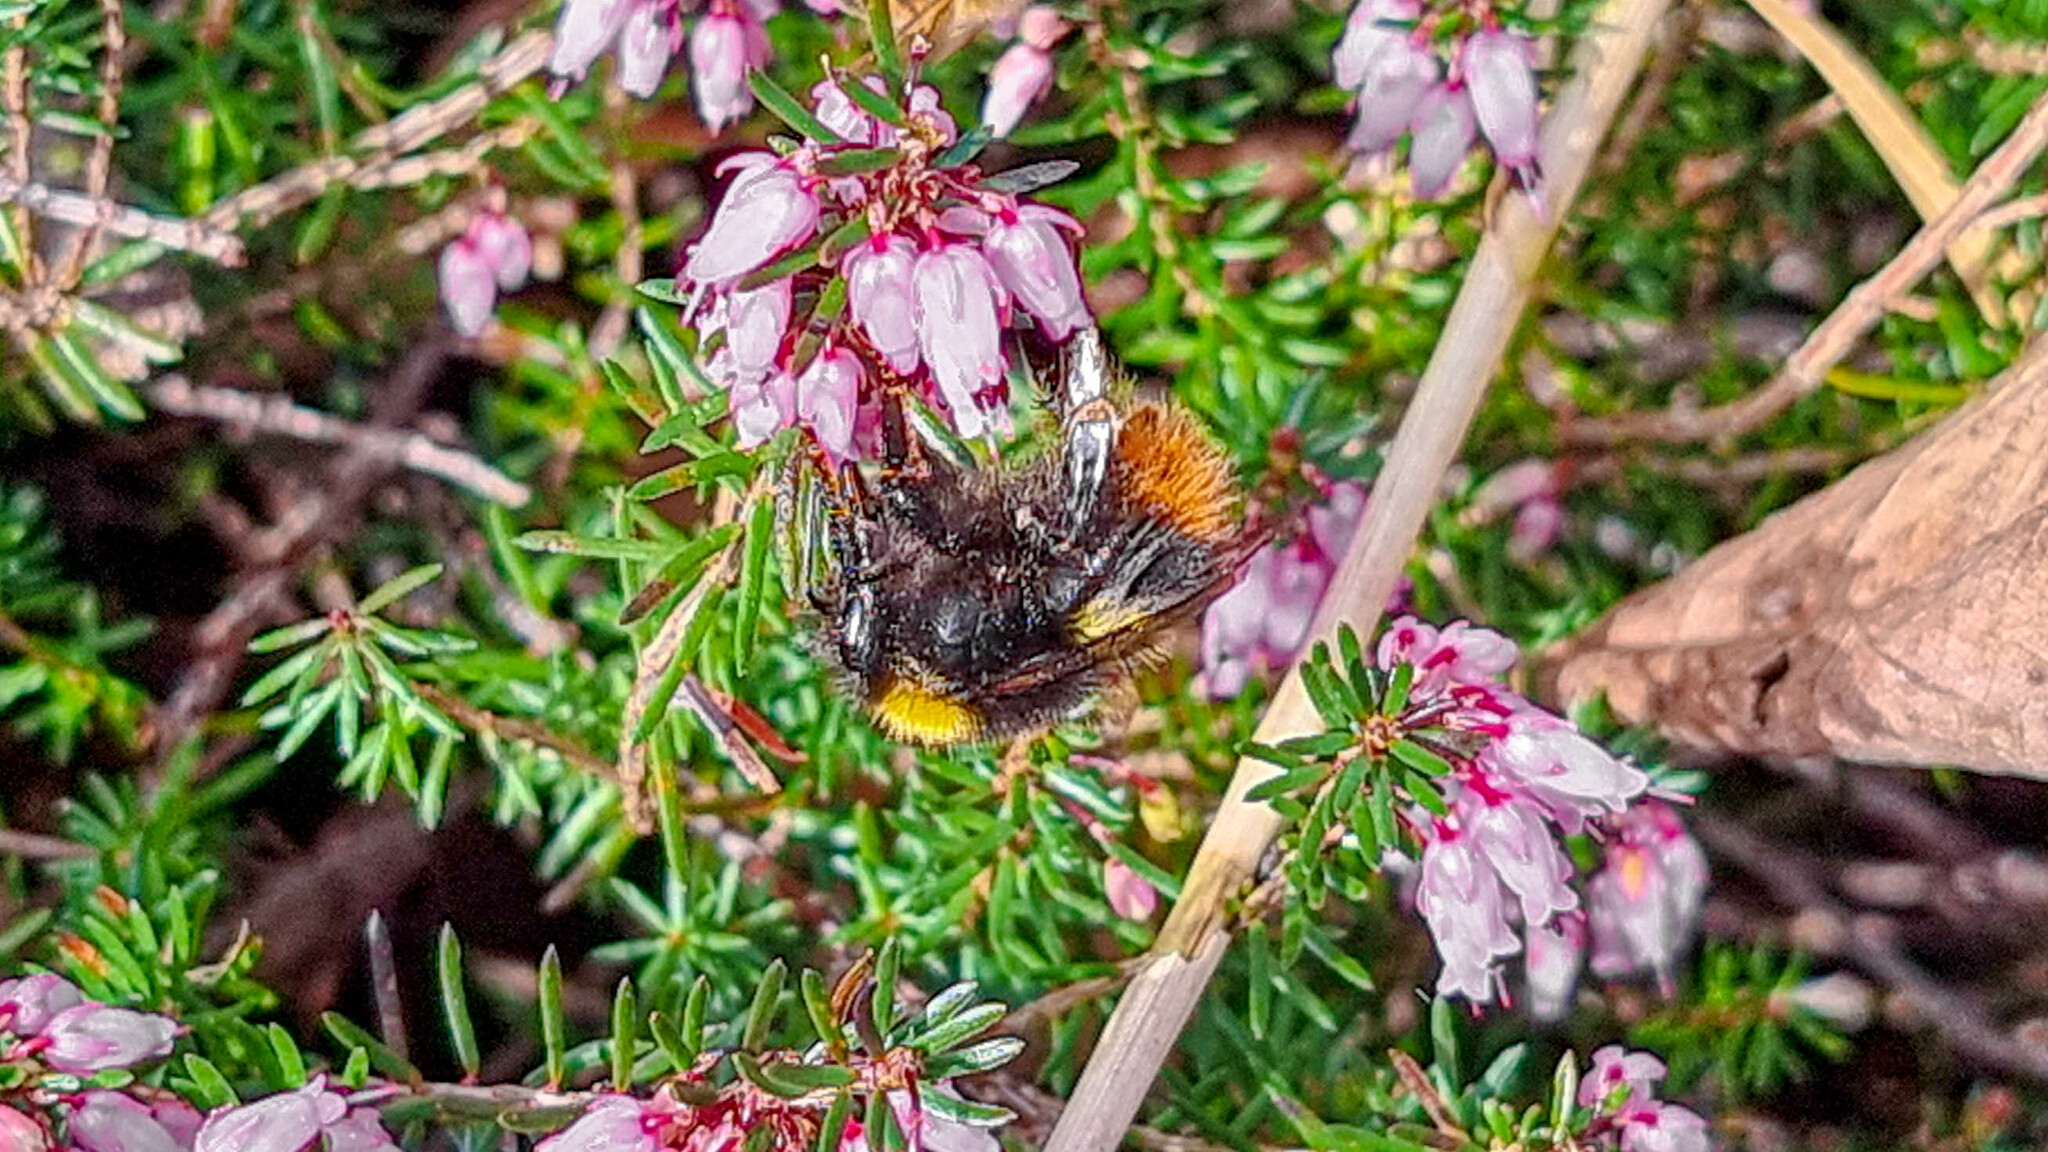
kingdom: Animalia
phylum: Arthropoda
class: Insecta
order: Hymenoptera
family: Apidae
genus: Bombus
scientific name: Bombus pratorum
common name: Early humble-bee
